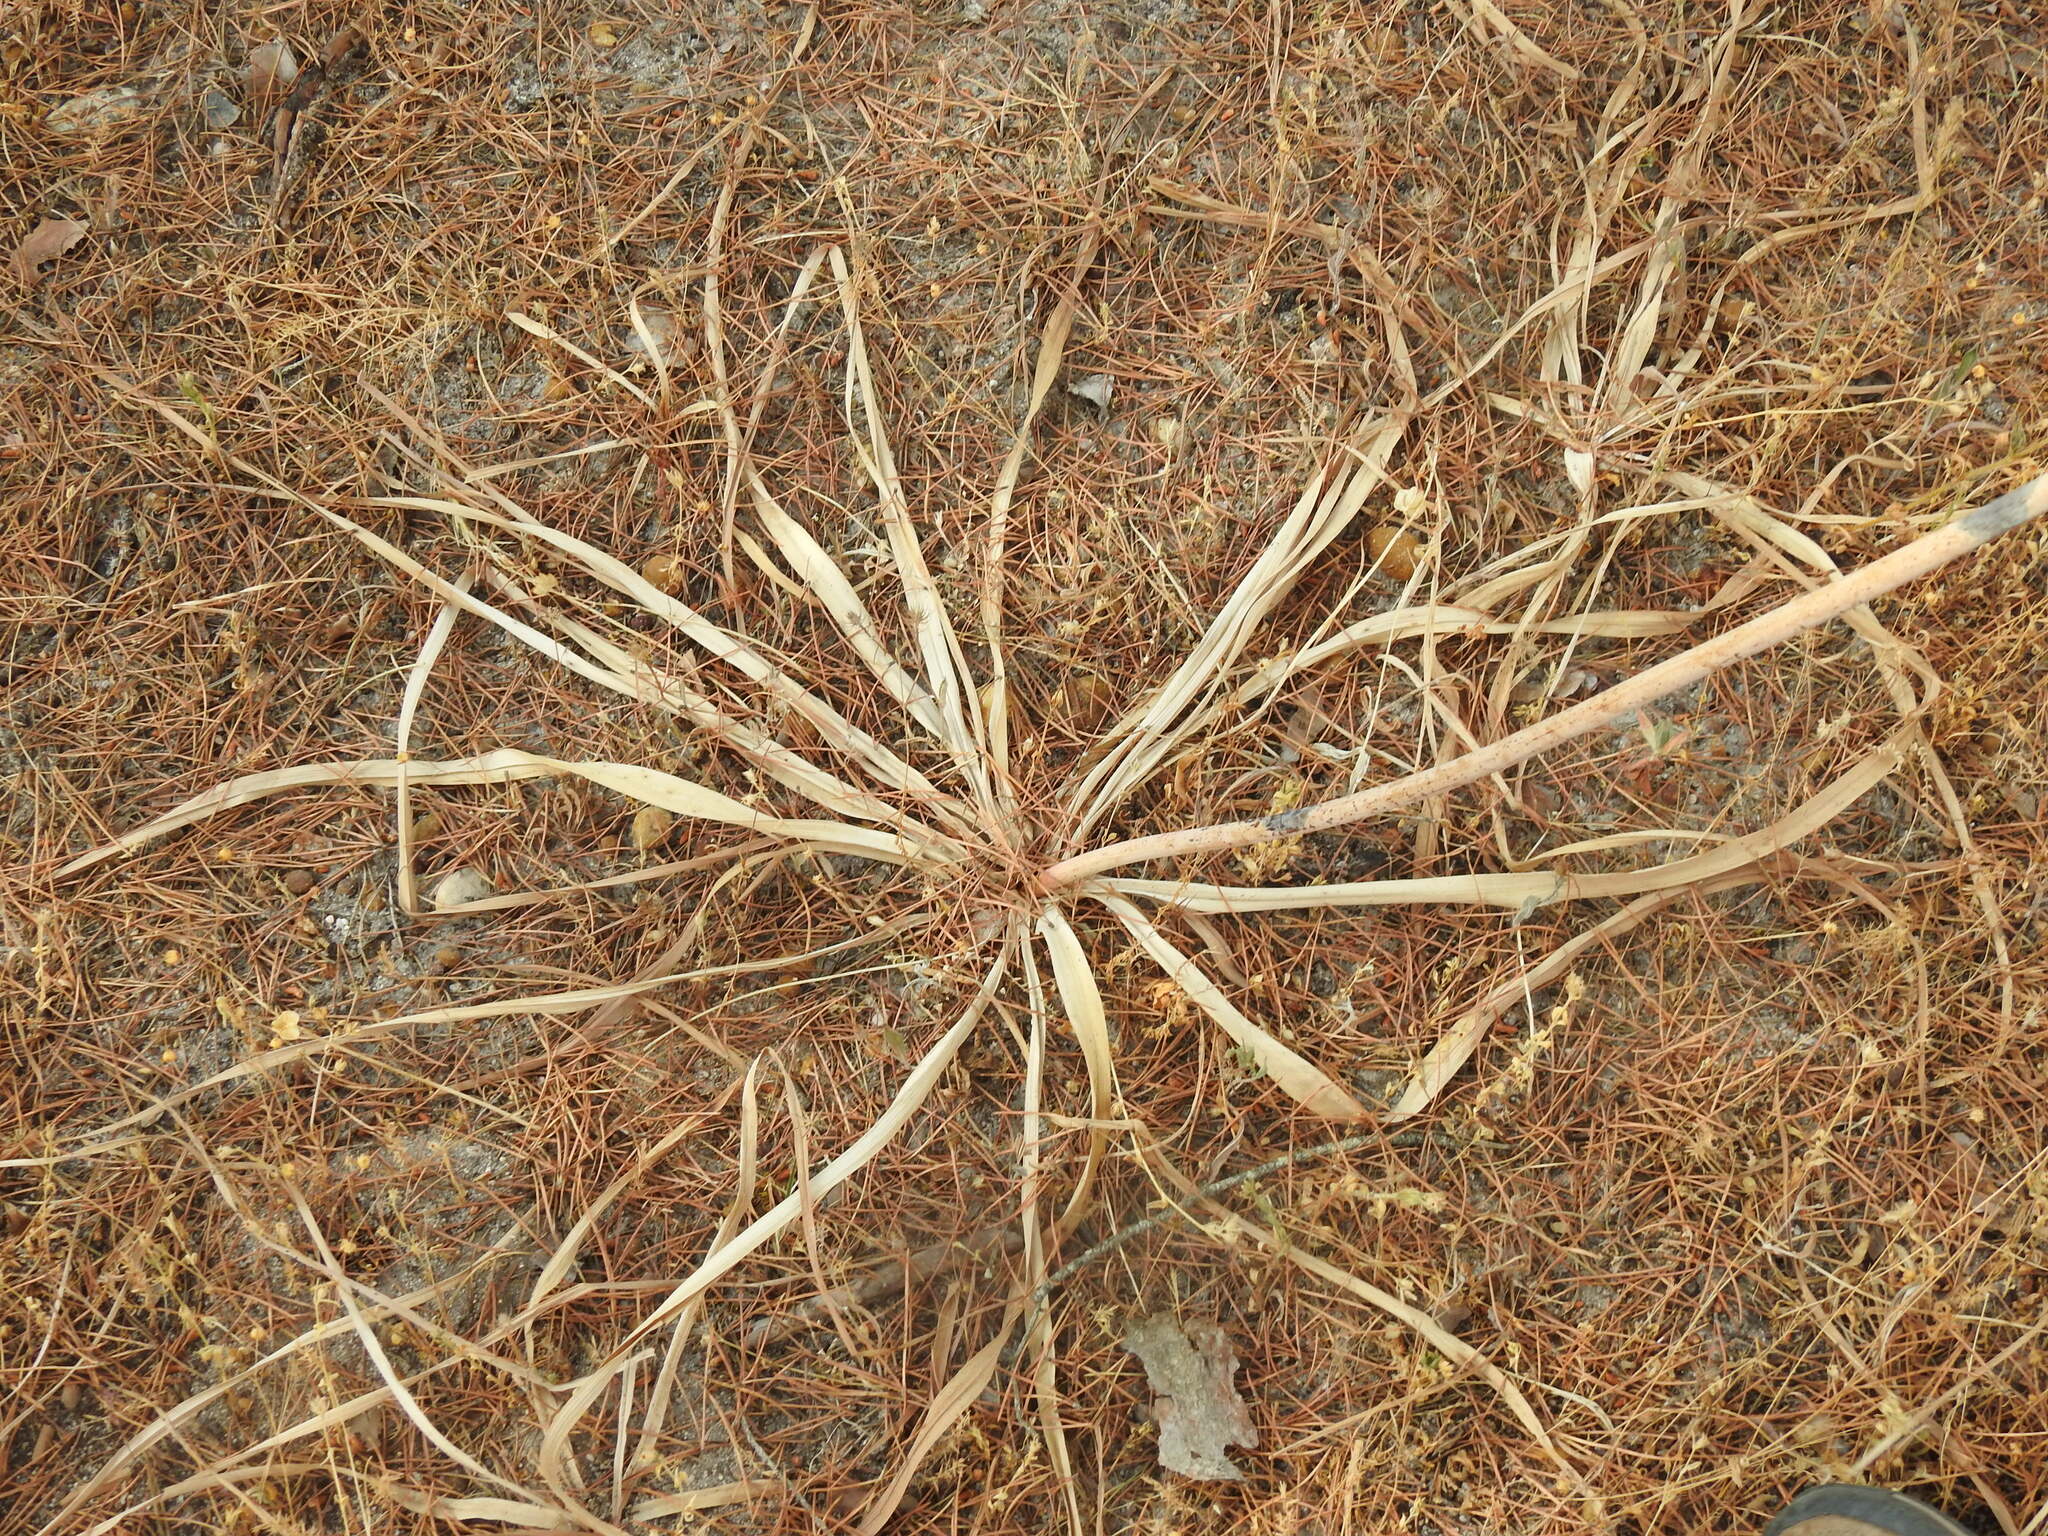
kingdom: Plantae
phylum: Tracheophyta
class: Liliopsida
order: Asparagales
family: Asphodelaceae
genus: Asphodelus
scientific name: Asphodelus serotinus
